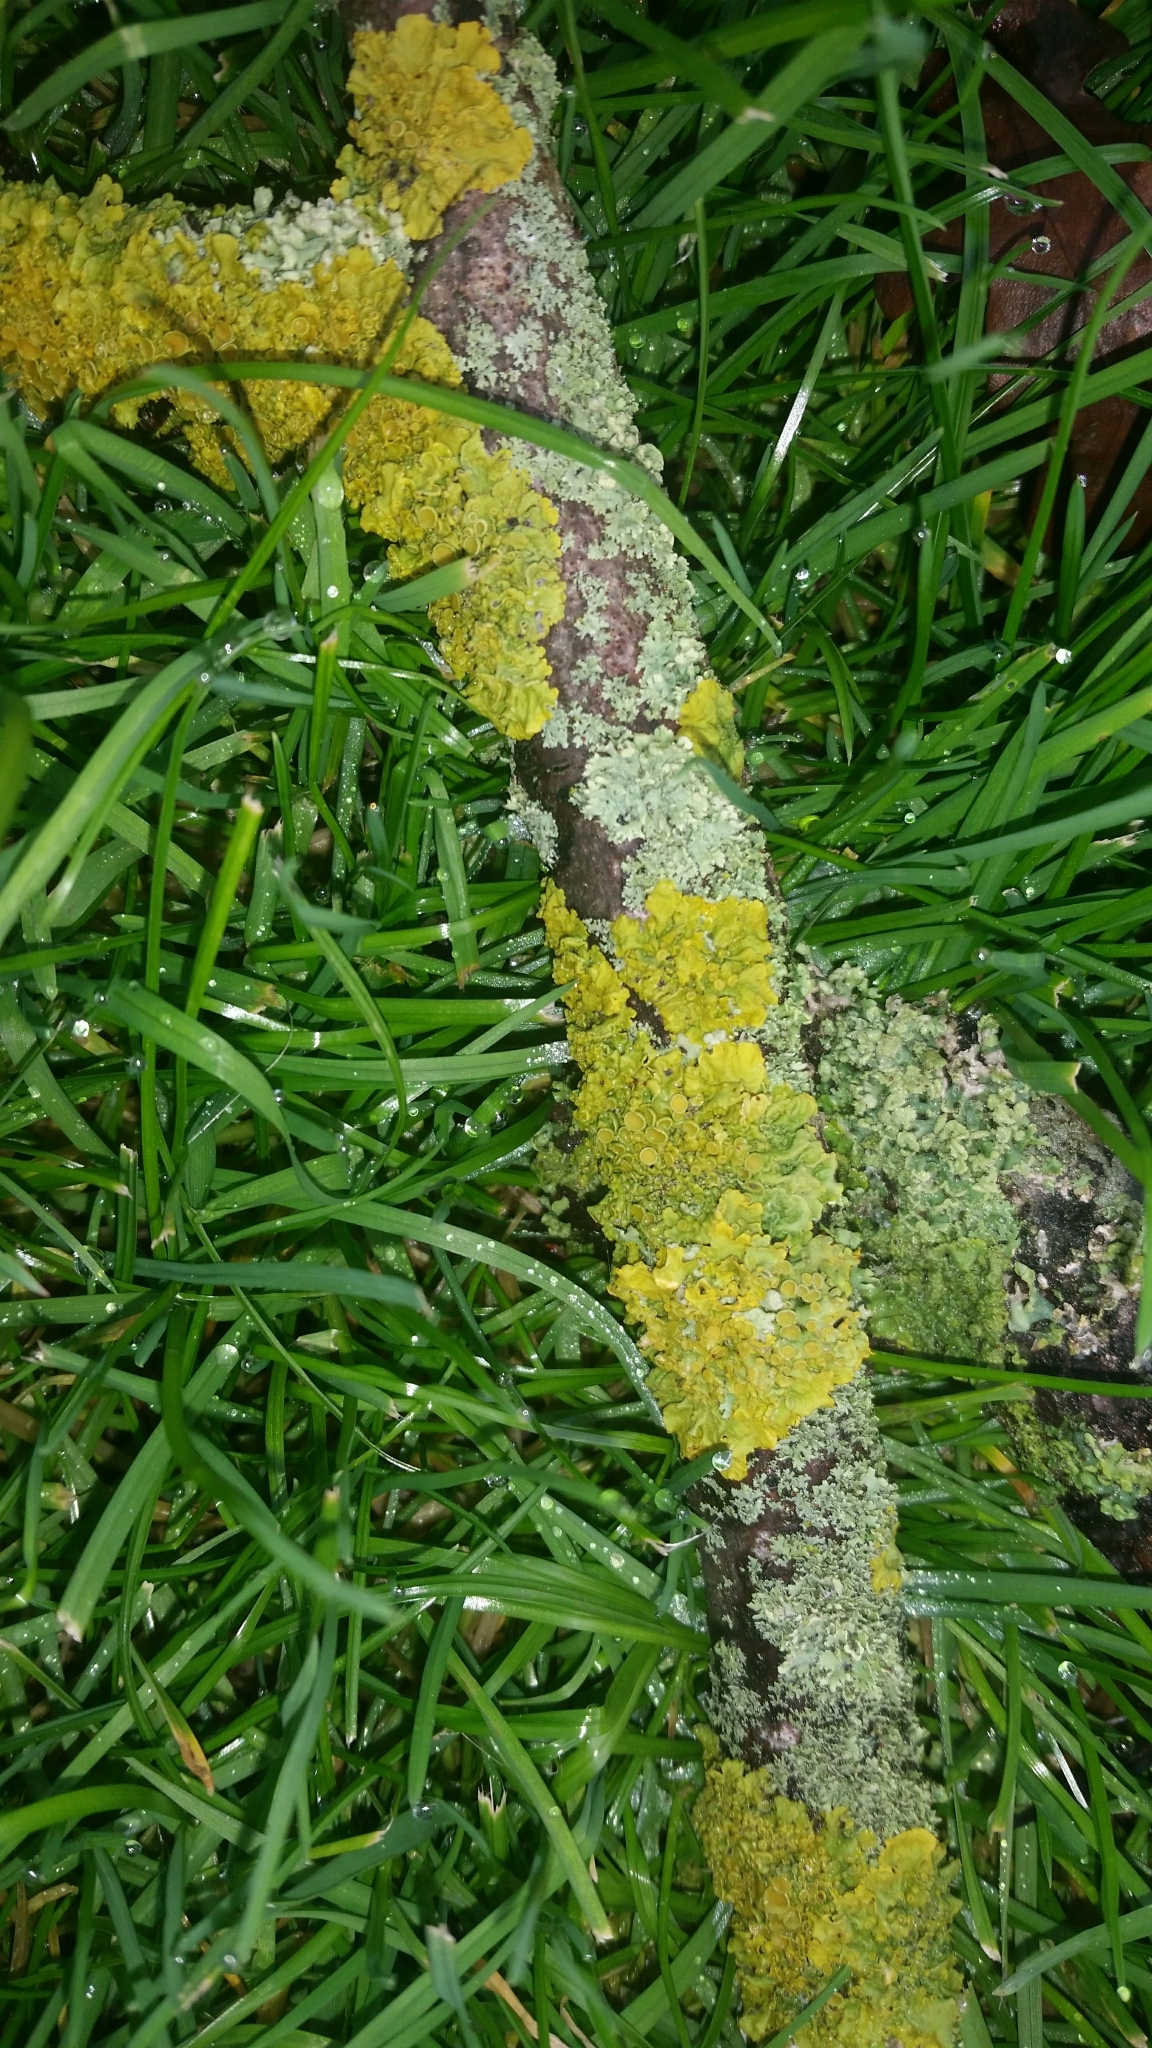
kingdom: Fungi
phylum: Ascomycota
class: Lecanoromycetes
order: Teloschistales
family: Teloschistaceae
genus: Xanthoria
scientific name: Xanthoria parietina
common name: Common orange lichen
